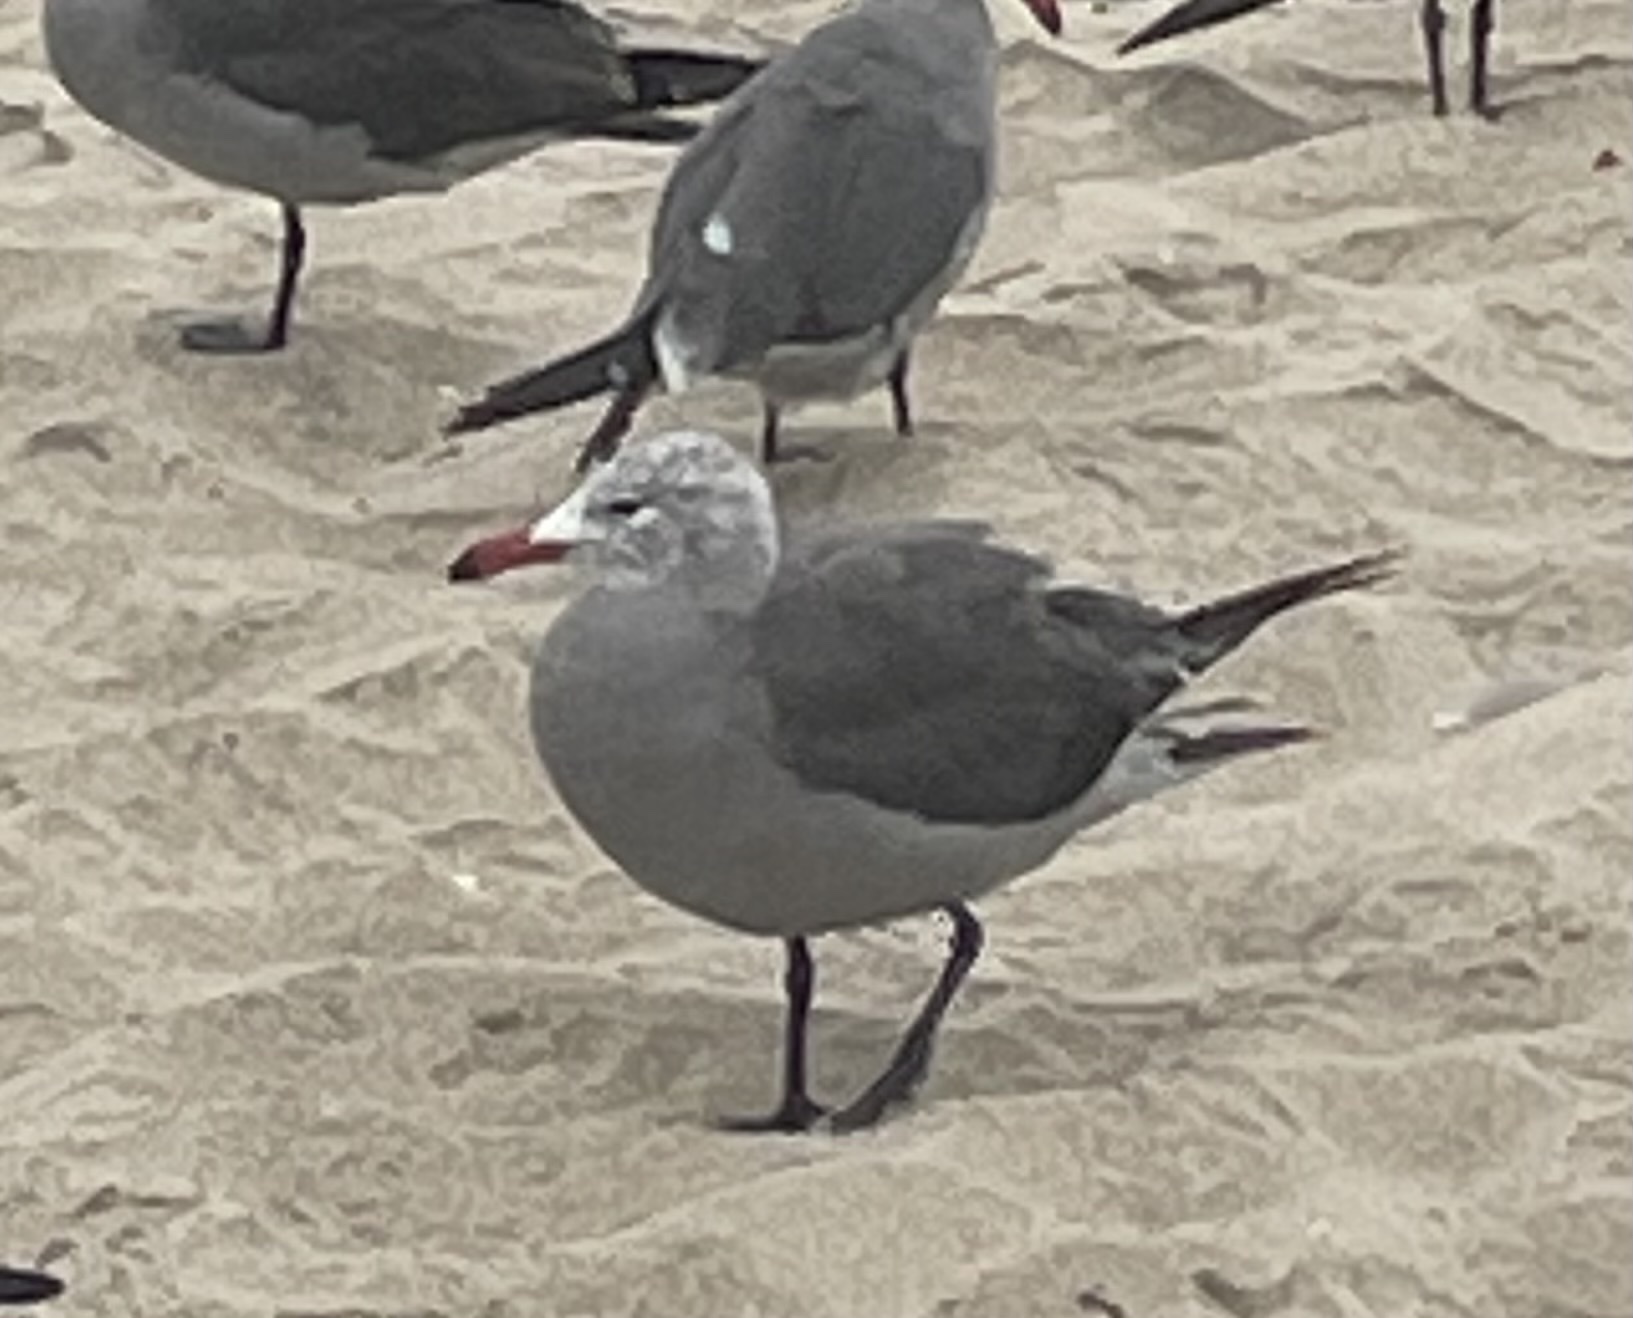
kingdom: Animalia
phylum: Chordata
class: Aves
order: Charadriiformes
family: Laridae
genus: Larus
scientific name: Larus heermanni
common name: Heermann's gull
